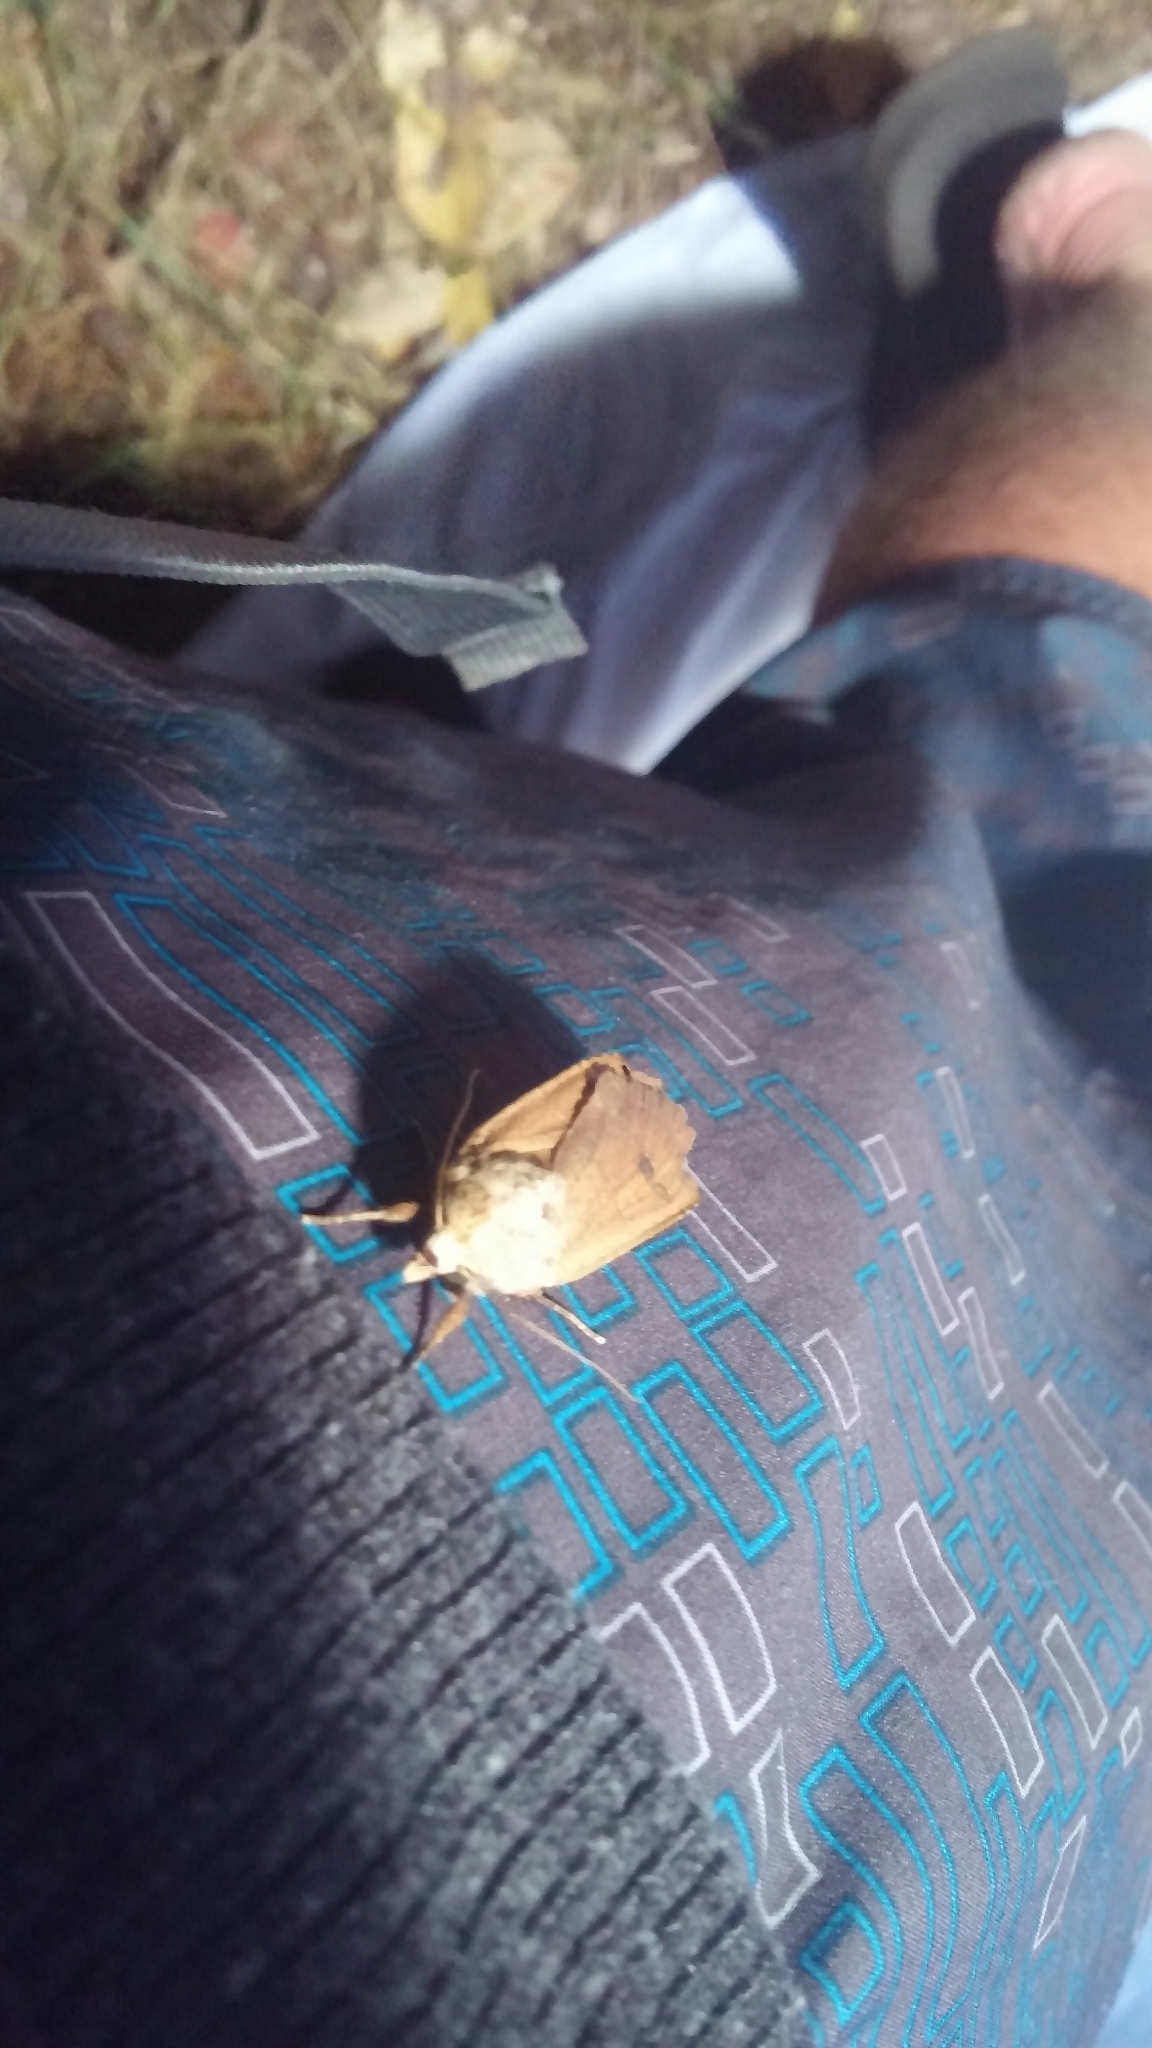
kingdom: Animalia
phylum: Arthropoda
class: Insecta
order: Lepidoptera
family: Noctuidae
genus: Noctua
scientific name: Noctua pronuba
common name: Large yellow underwing
